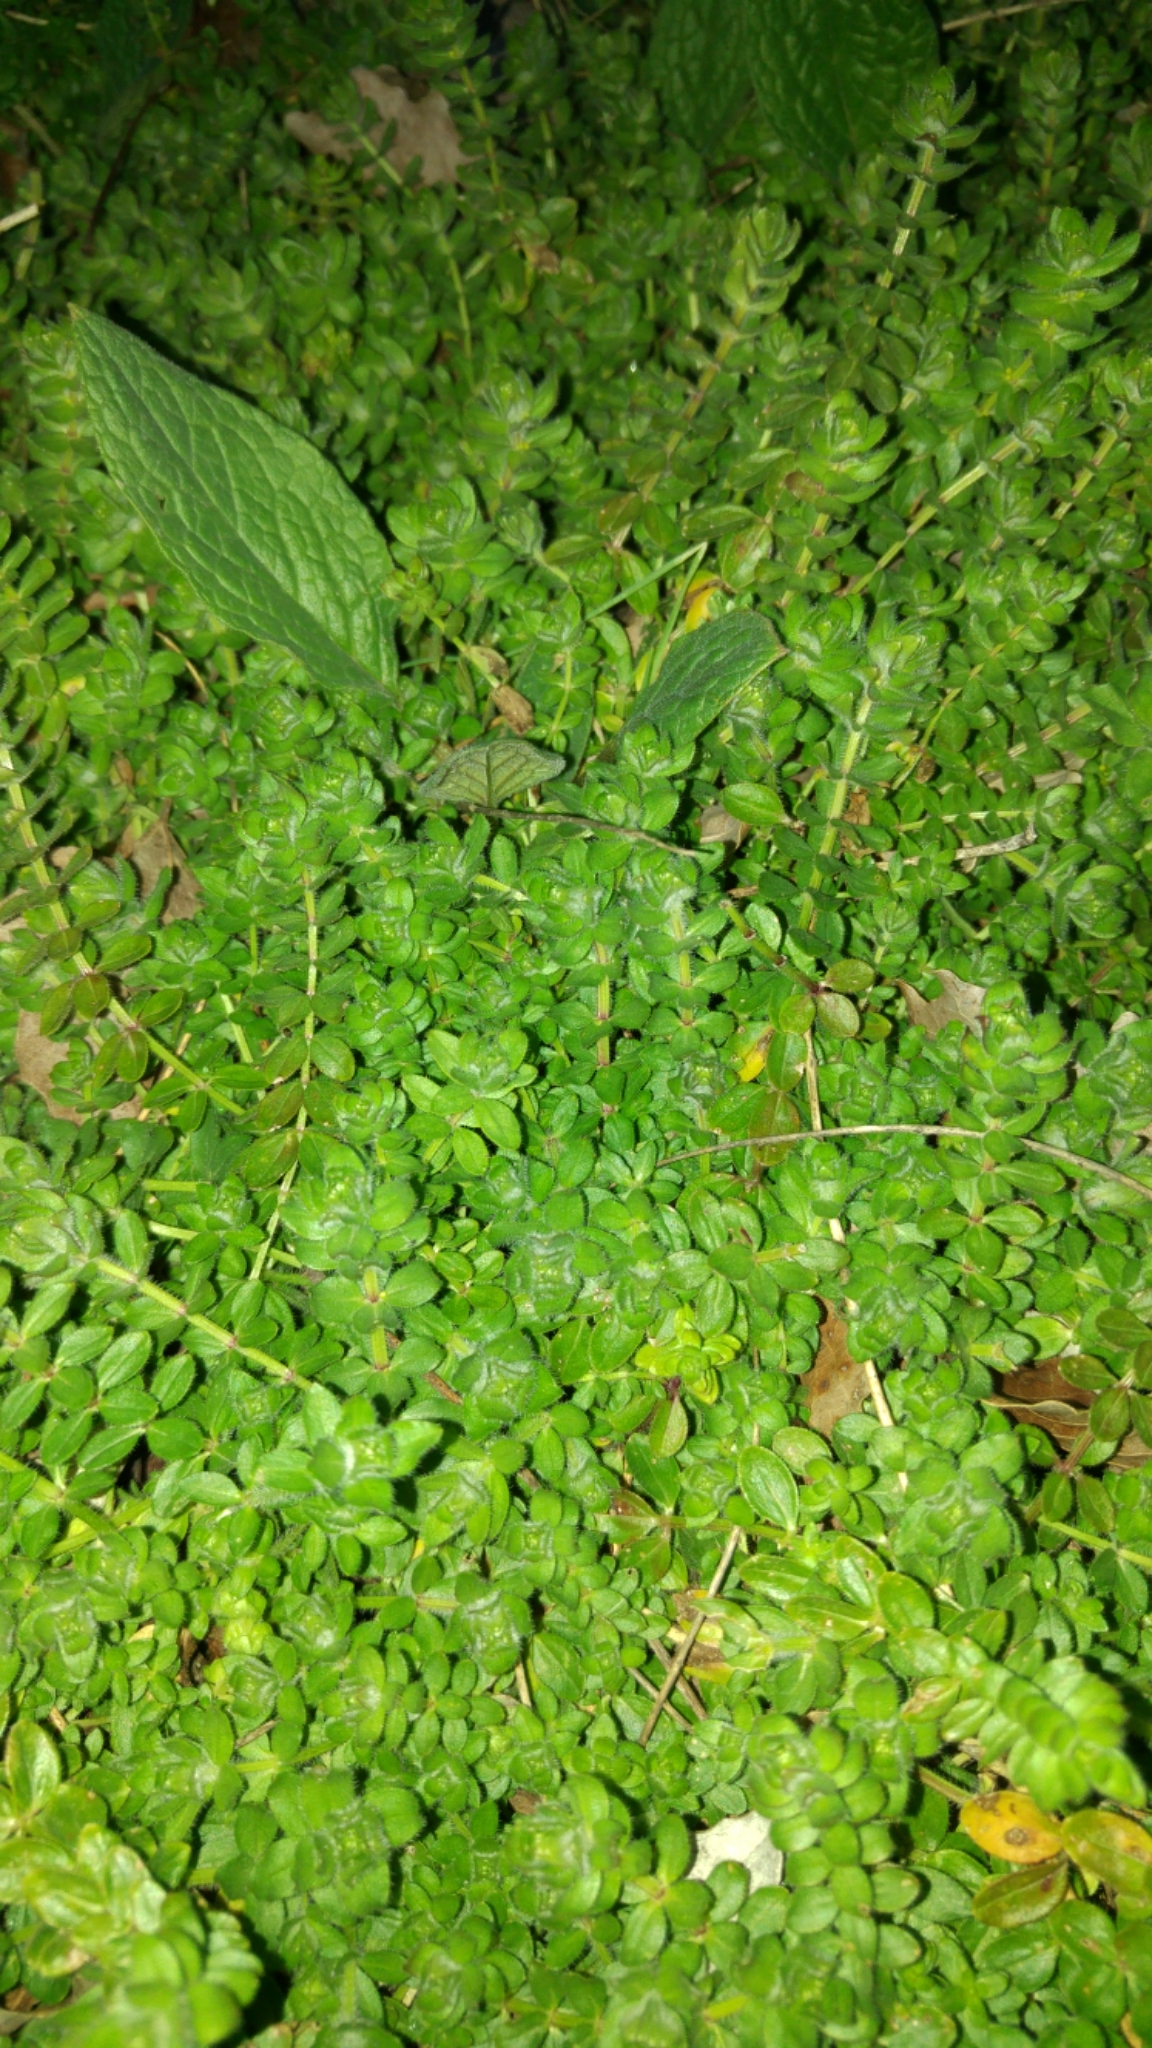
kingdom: Plantae
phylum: Tracheophyta
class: Magnoliopsida
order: Gentianales
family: Rubiaceae
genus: Cruciata
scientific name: Cruciata laevipes
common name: Crosswort
